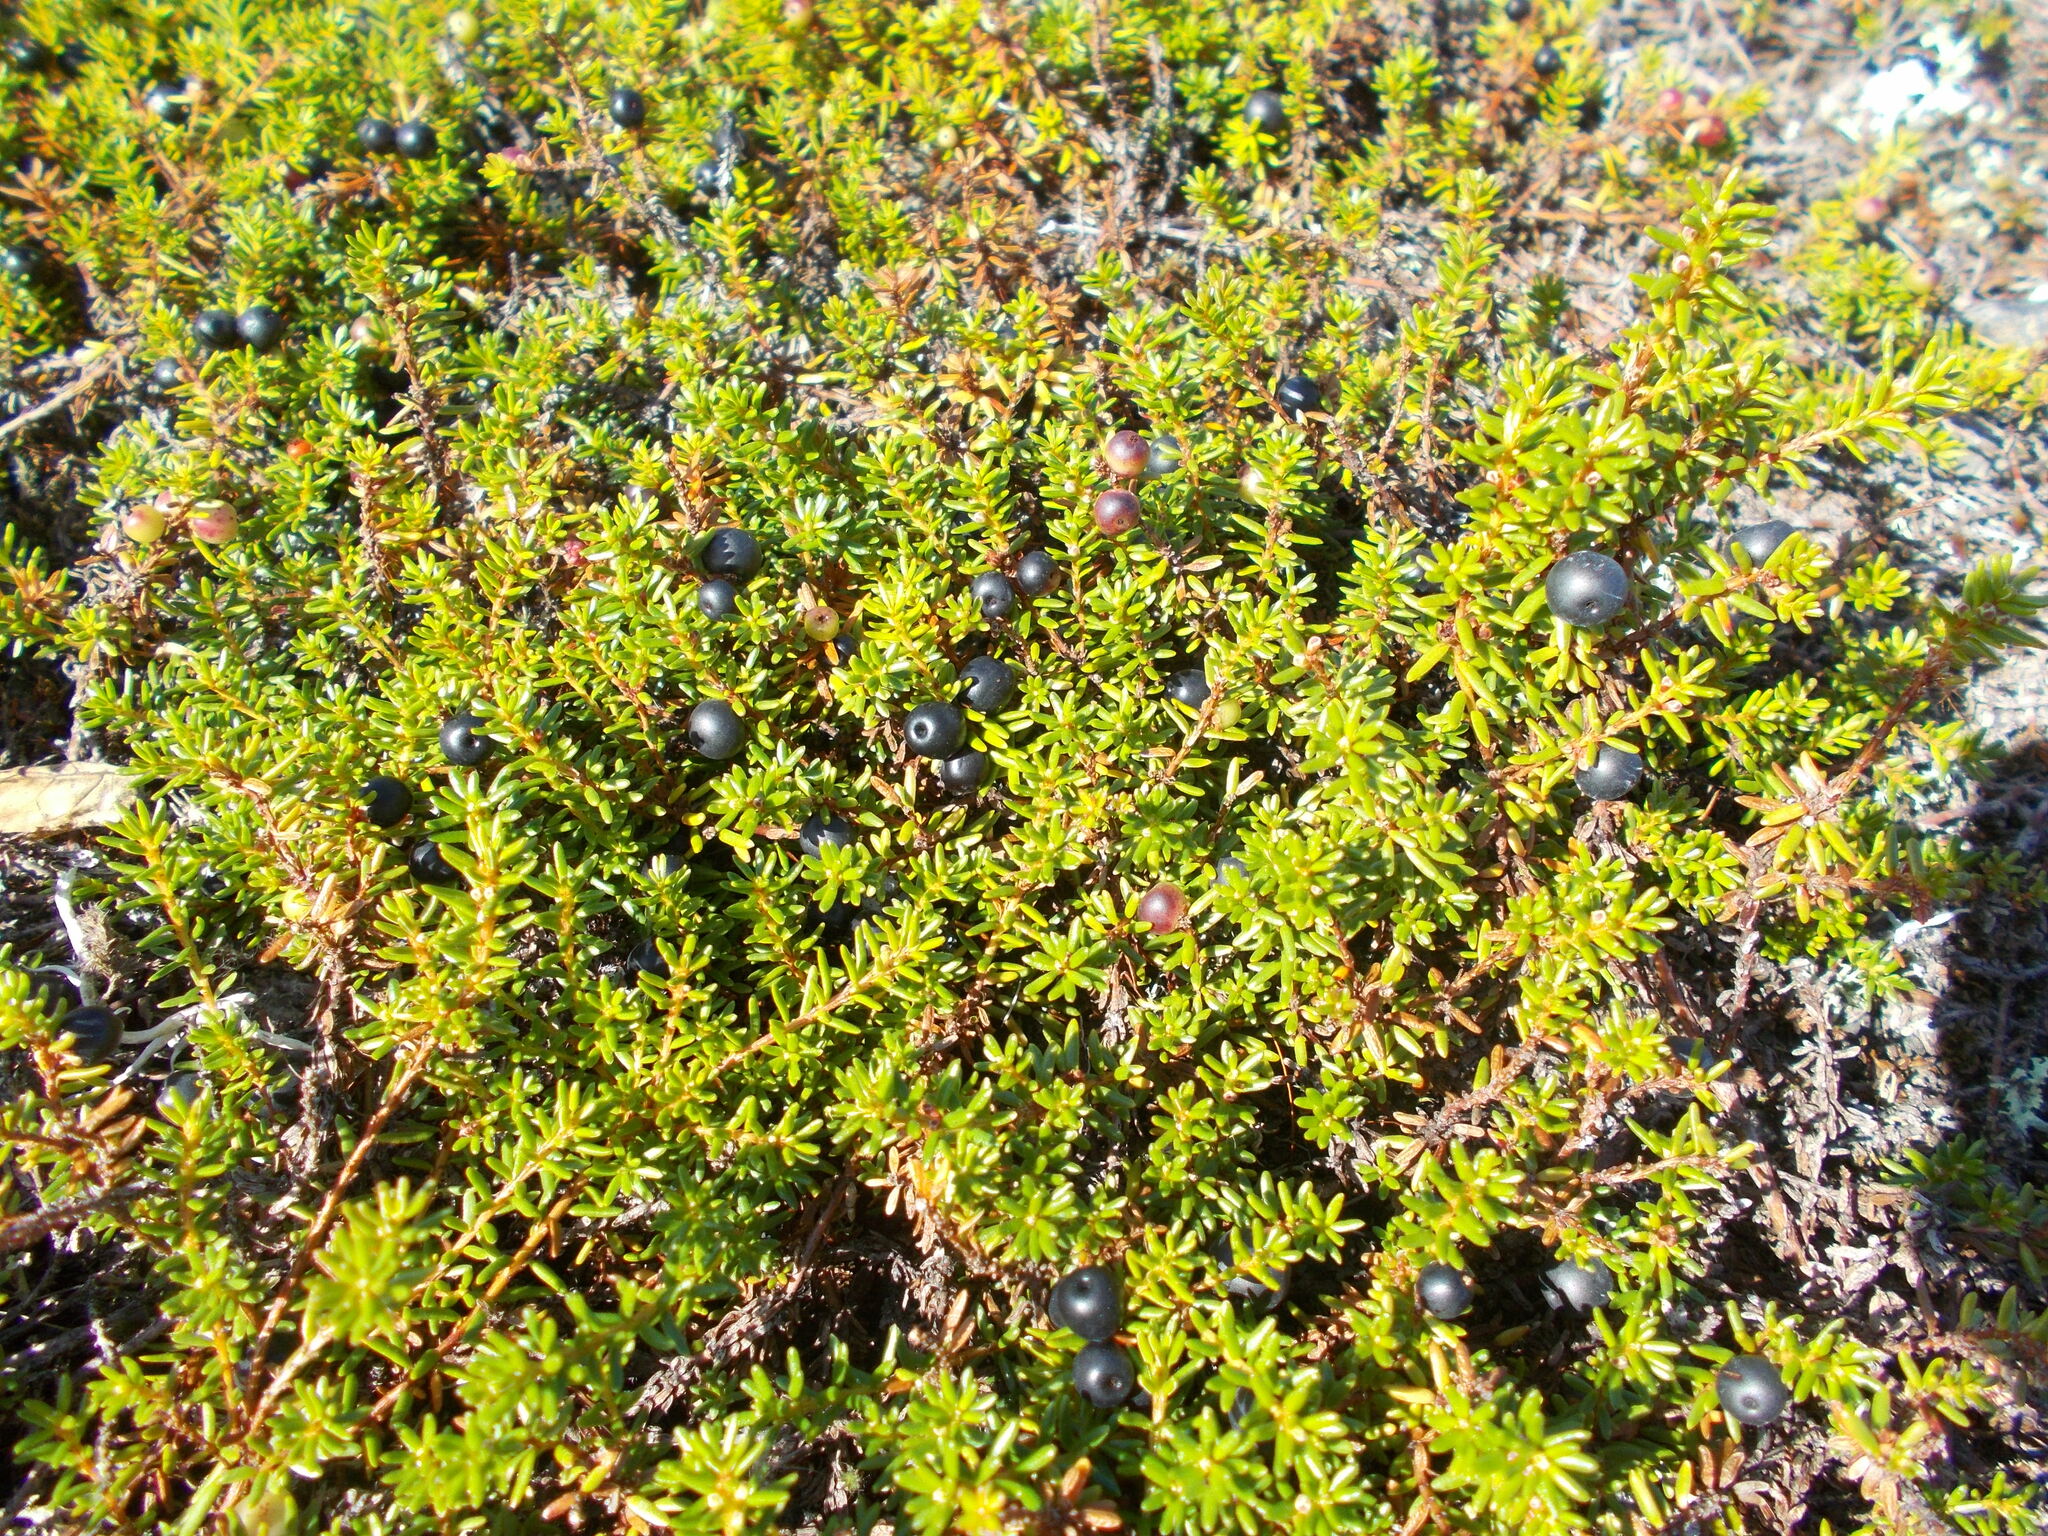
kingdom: Plantae
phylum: Tracheophyta
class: Magnoliopsida
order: Ericales
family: Ericaceae
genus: Empetrum
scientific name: Empetrum nigrum
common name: Black crowberry
